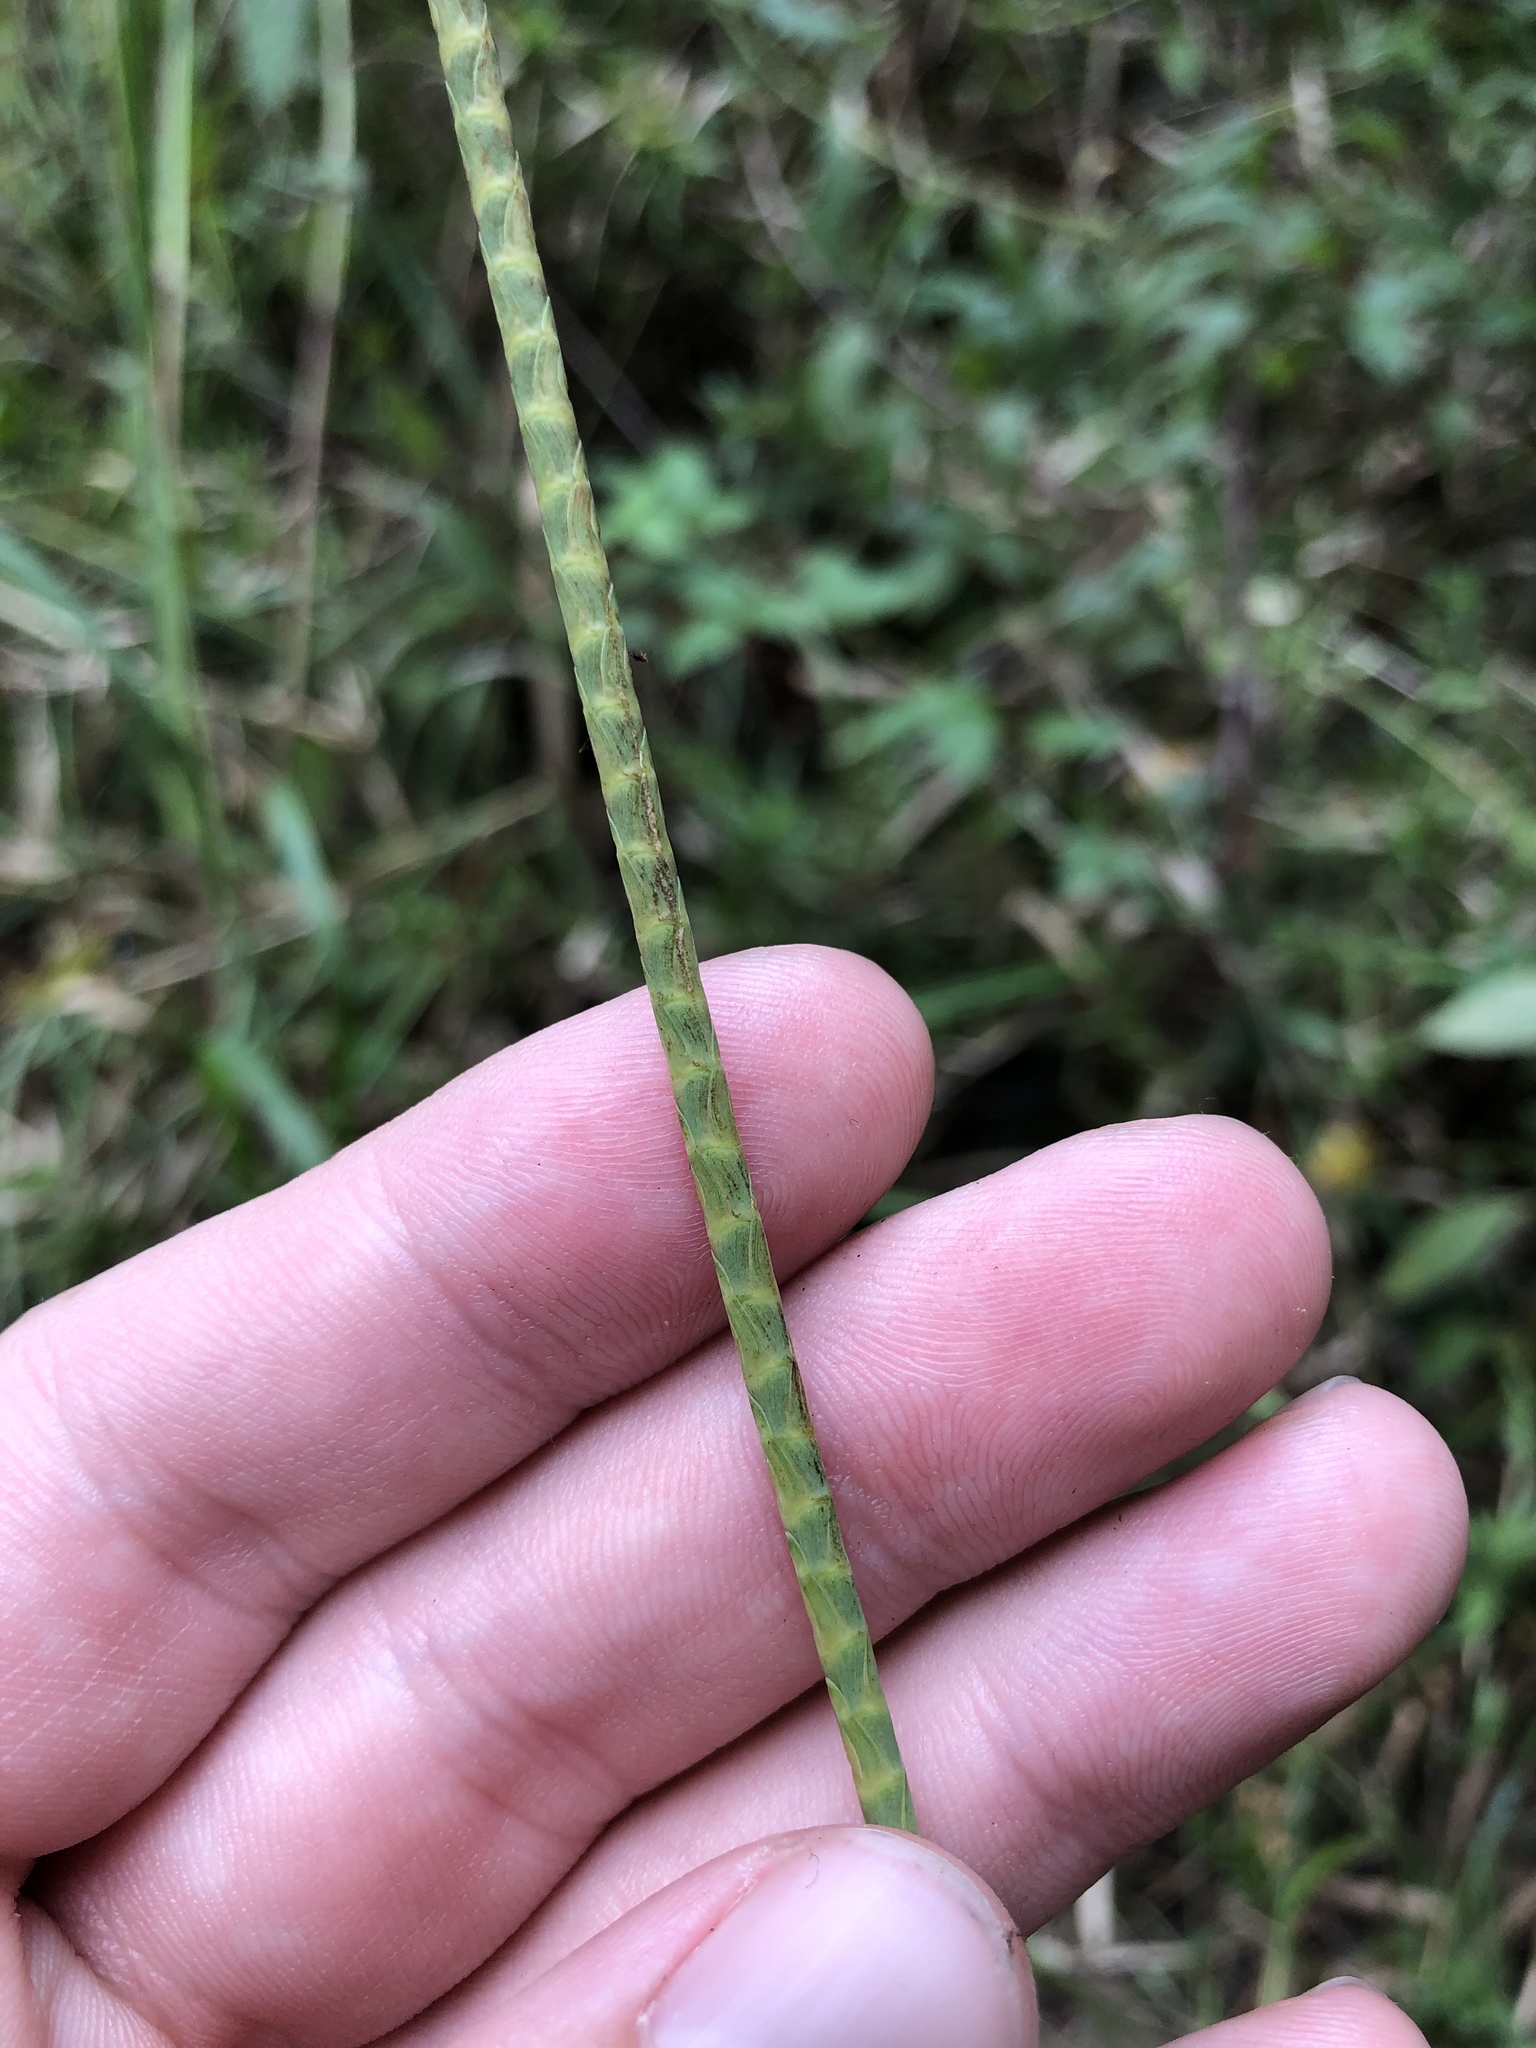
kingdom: Plantae
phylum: Tracheophyta
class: Liliopsida
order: Poales
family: Poaceae
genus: Rottboellia
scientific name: Rottboellia tessellata
